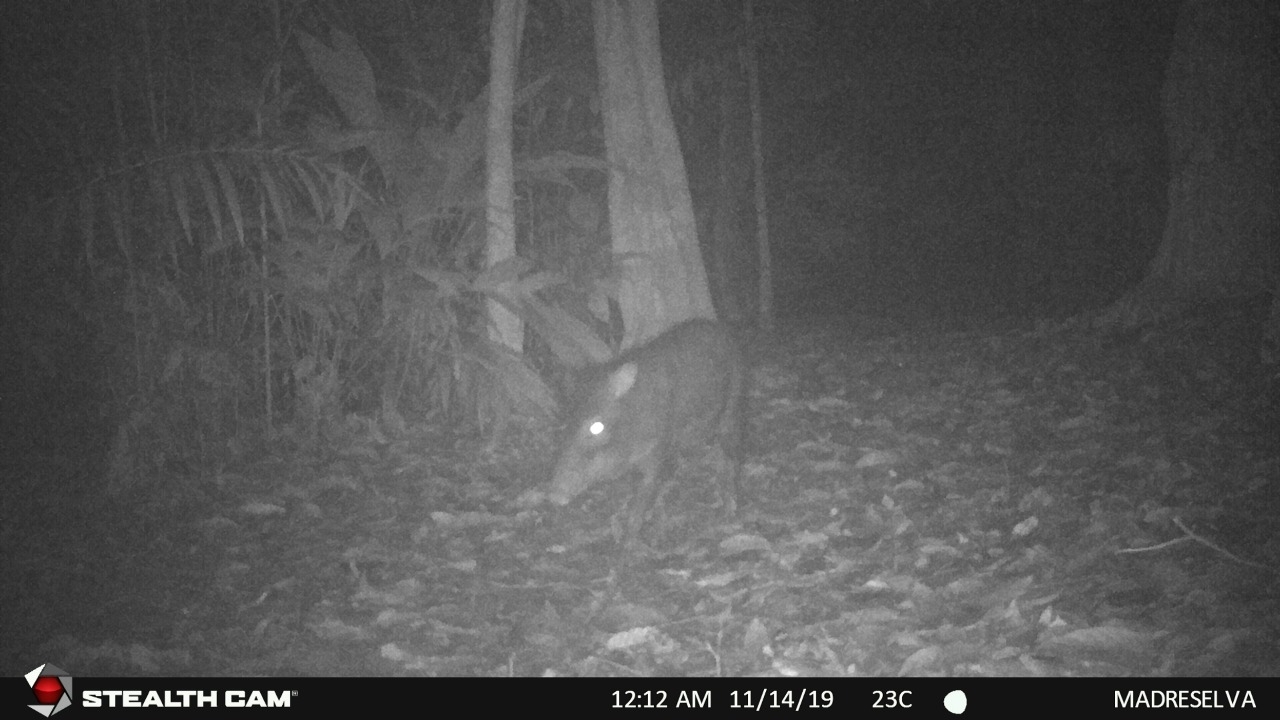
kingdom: Animalia
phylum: Chordata
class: Mammalia
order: Artiodactyla
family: Tayassuidae
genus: Pecari
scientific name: Pecari tajacu
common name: Collared peccary
